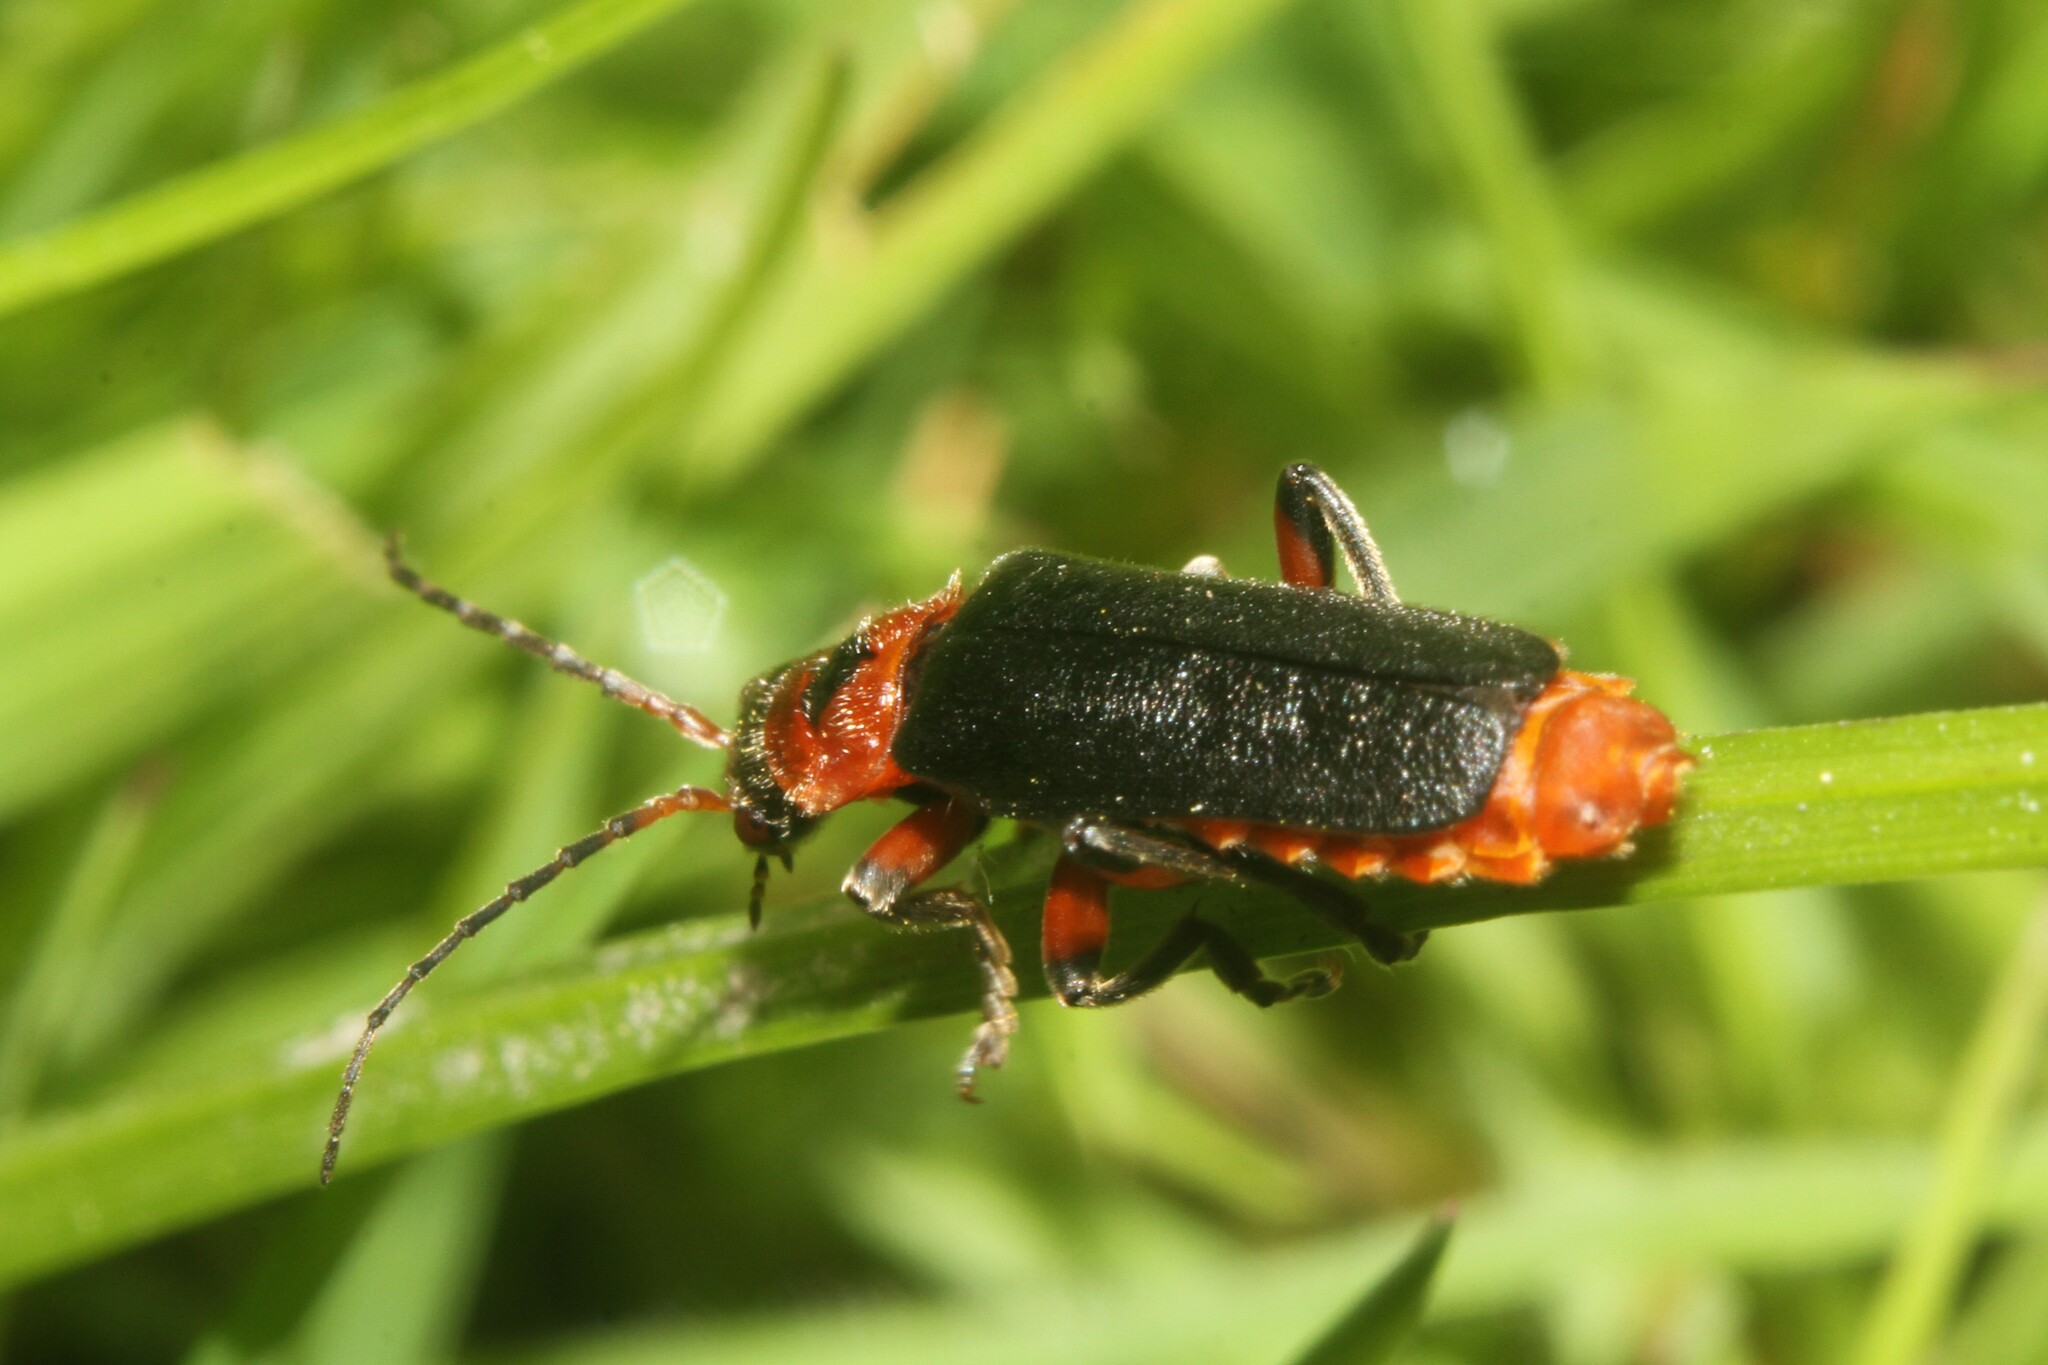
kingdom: Animalia
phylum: Arthropoda
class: Insecta
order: Coleoptera
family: Cantharidae
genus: Cantharis
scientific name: Cantharis rustica
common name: Soldier beetle
